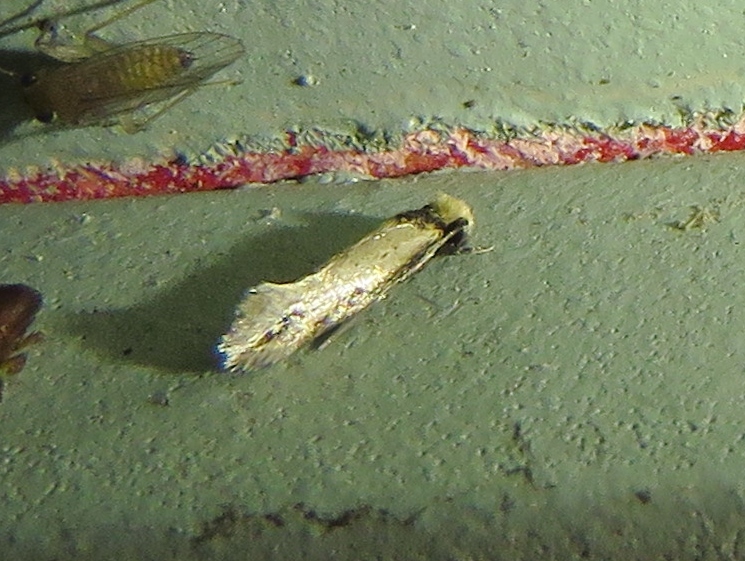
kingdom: Animalia
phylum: Arthropoda
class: Insecta
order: Lepidoptera
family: Meessiidae
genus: Homostinea
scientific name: Homostinea curviliniella
